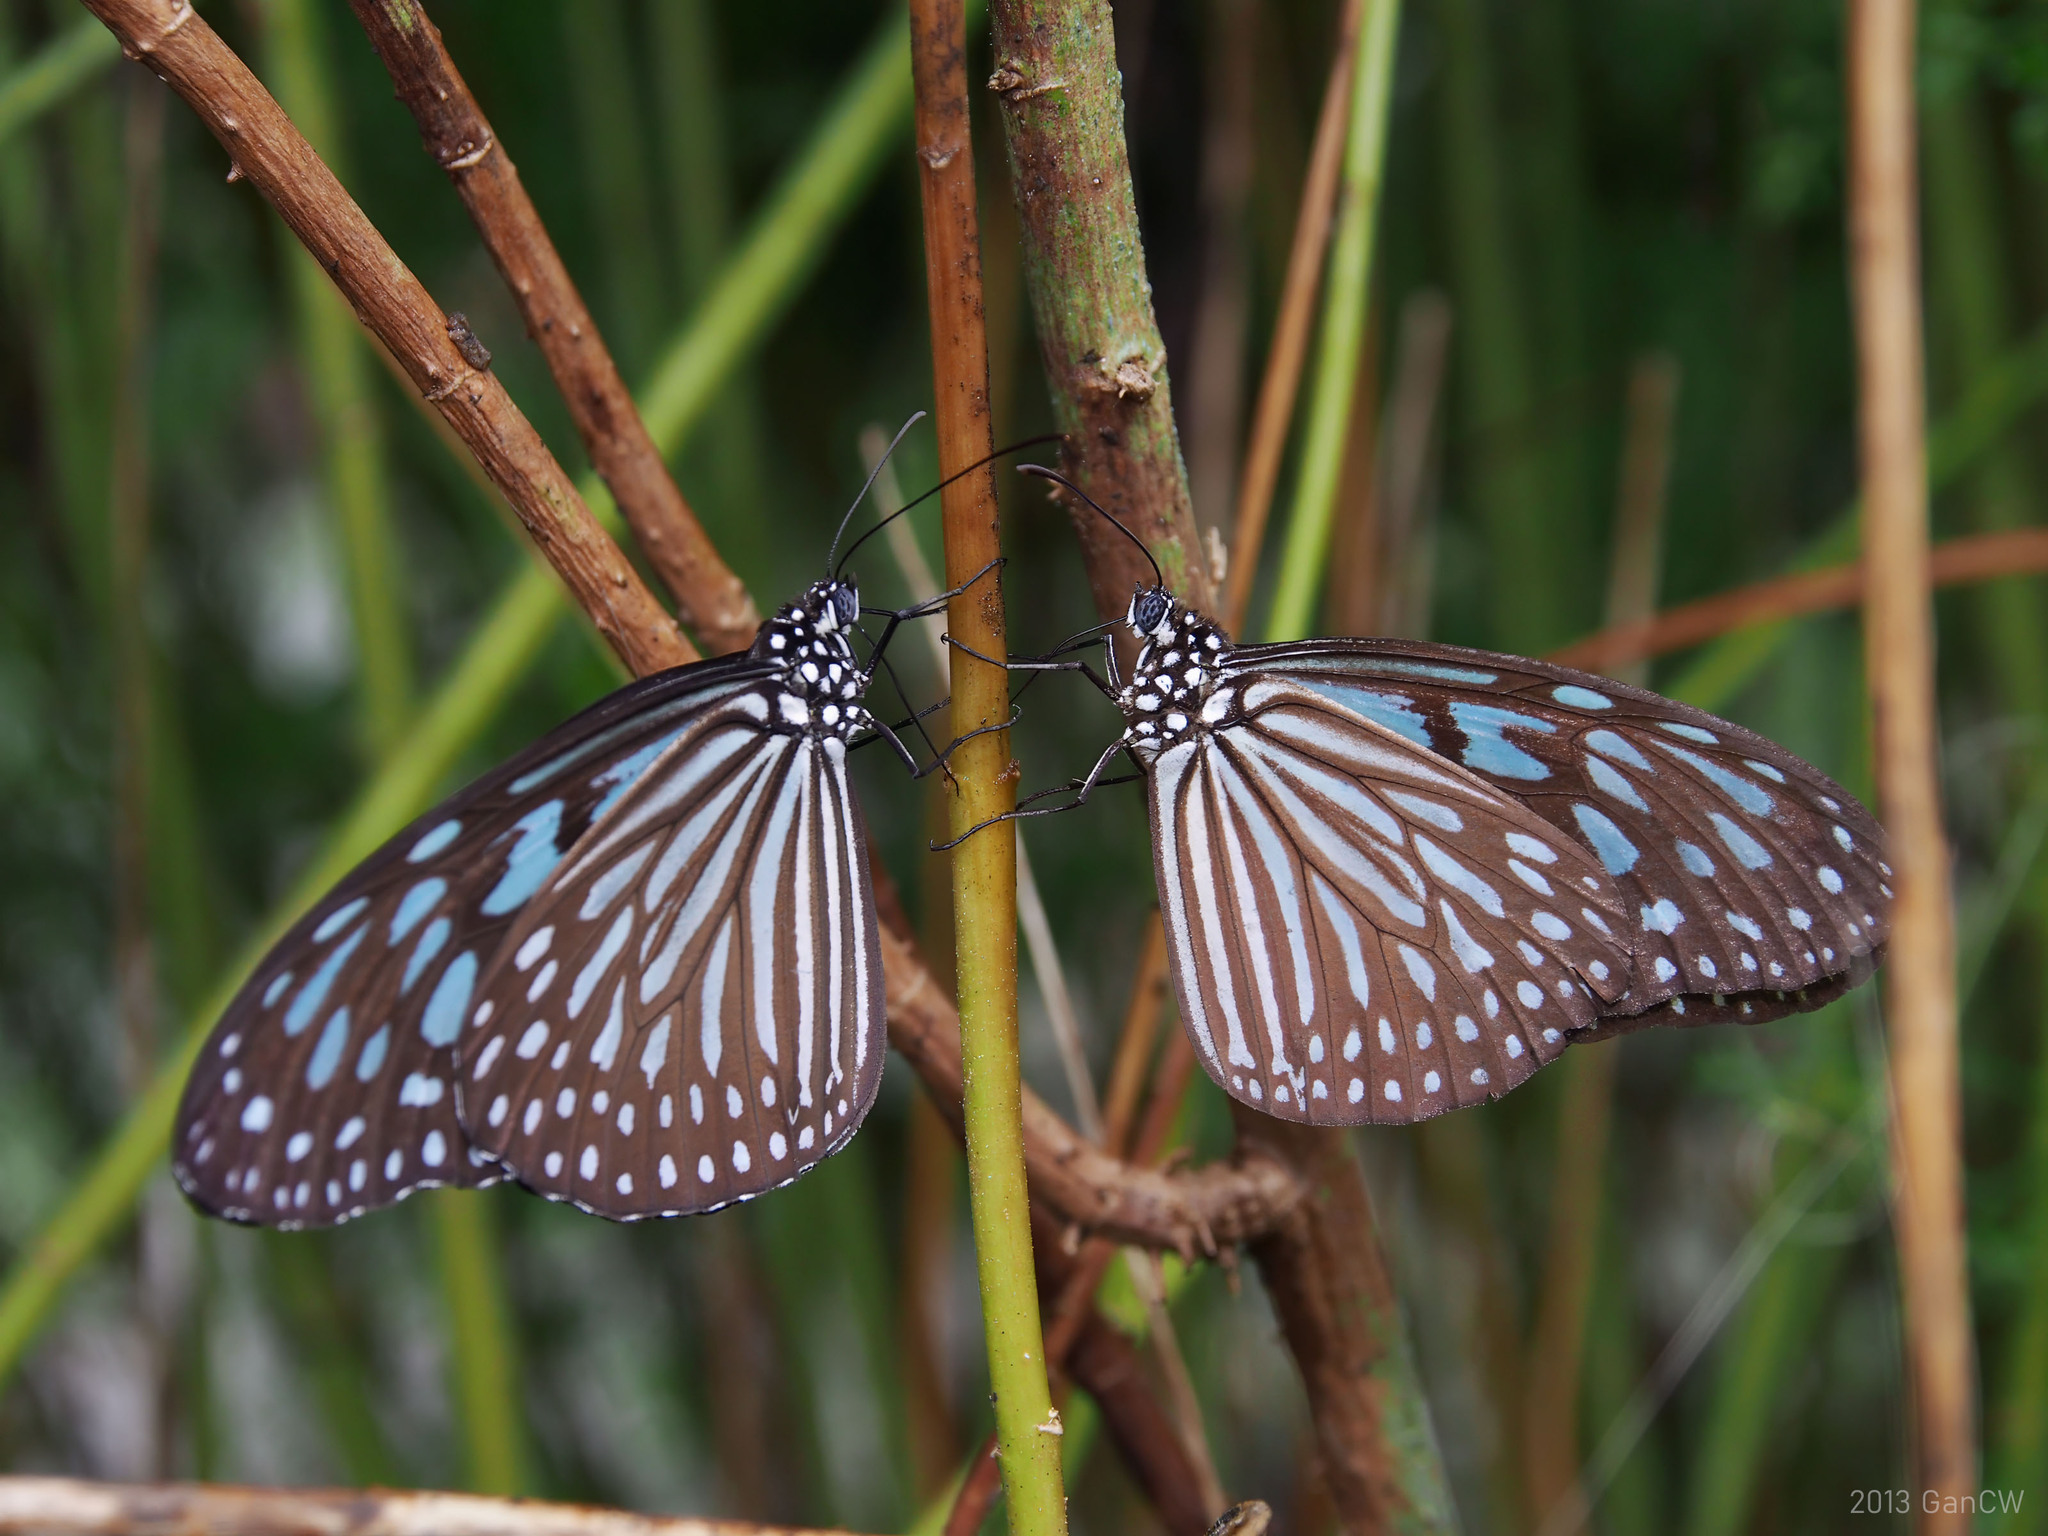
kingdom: Animalia
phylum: Arthropoda
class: Insecta
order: Lepidoptera
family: Nymphalidae
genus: Ideopsis
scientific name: Ideopsis vulgaris
